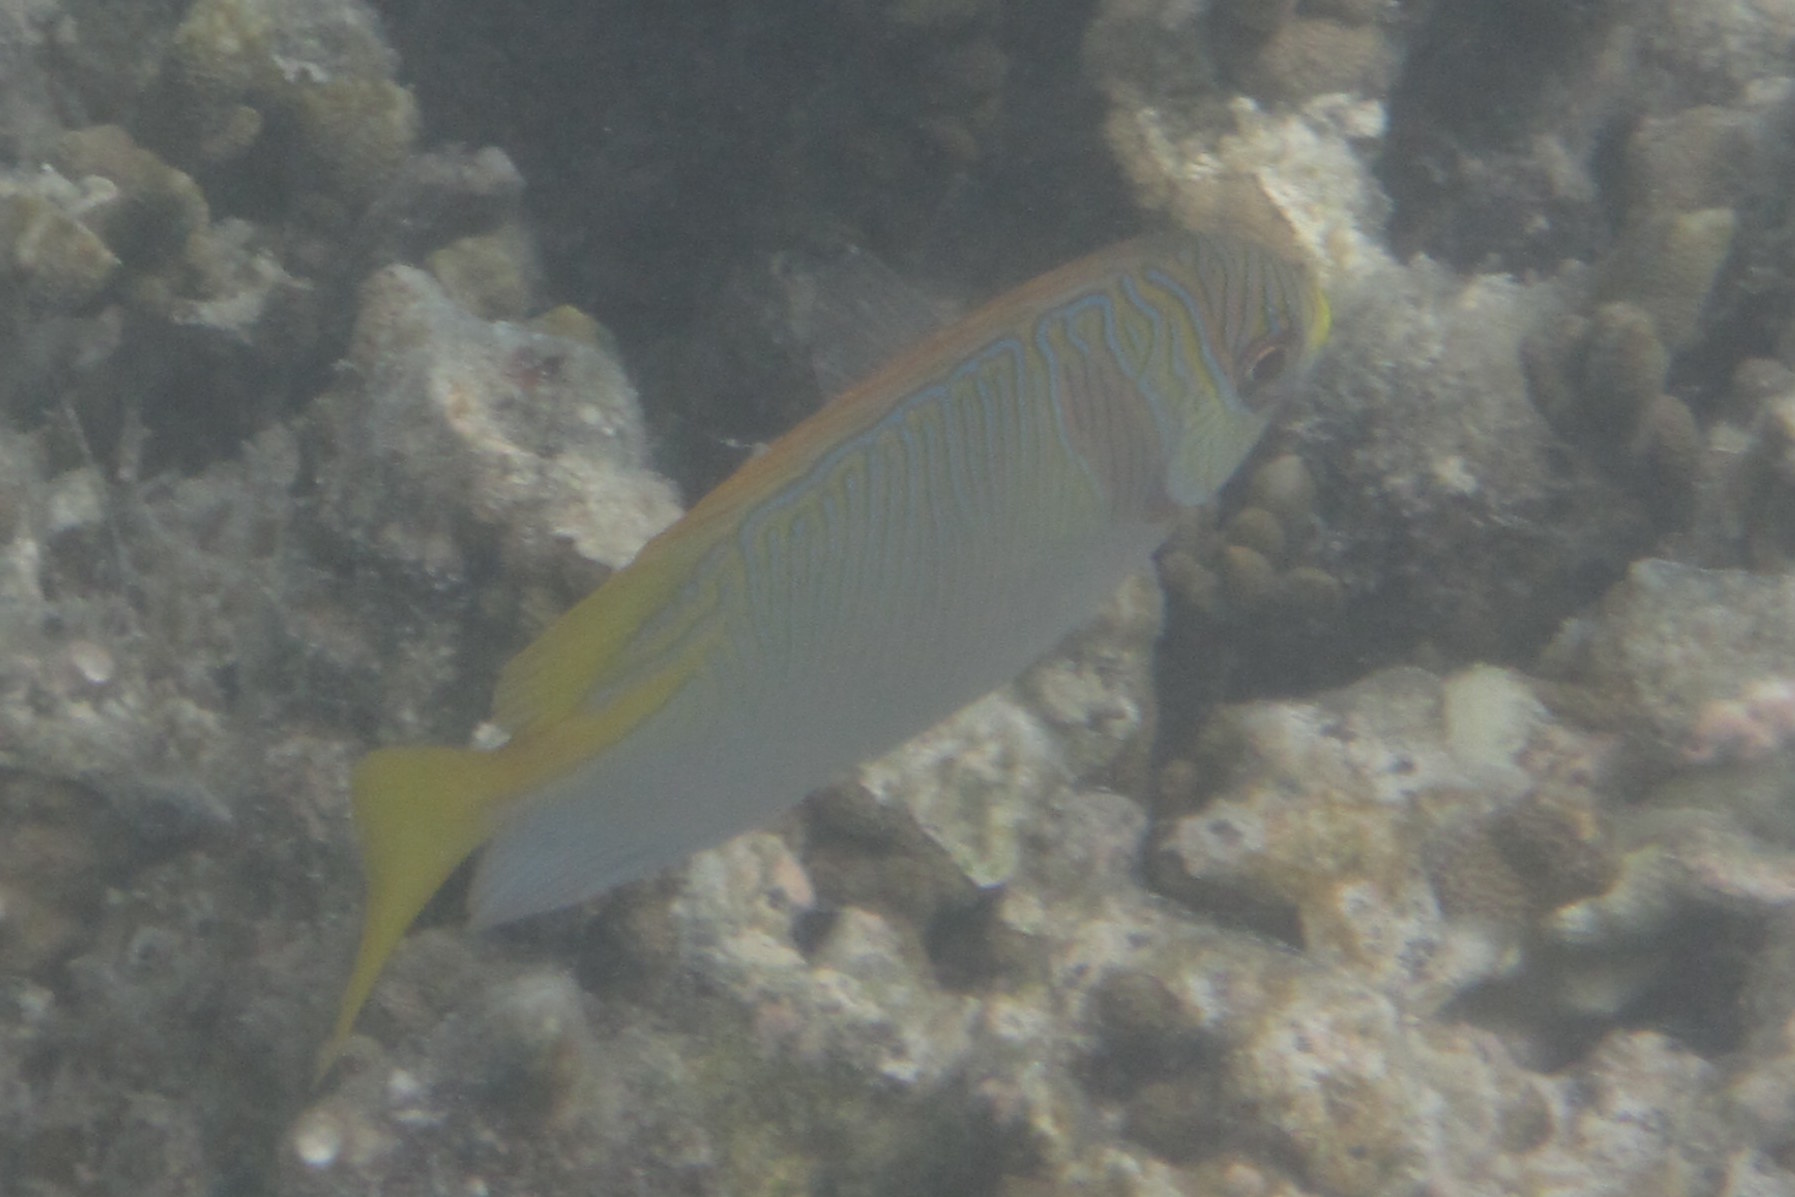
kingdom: Animalia
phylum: Chordata
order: Perciformes
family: Siganidae
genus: Siganus
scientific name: Siganus doliatus
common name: Barred spinefoot
